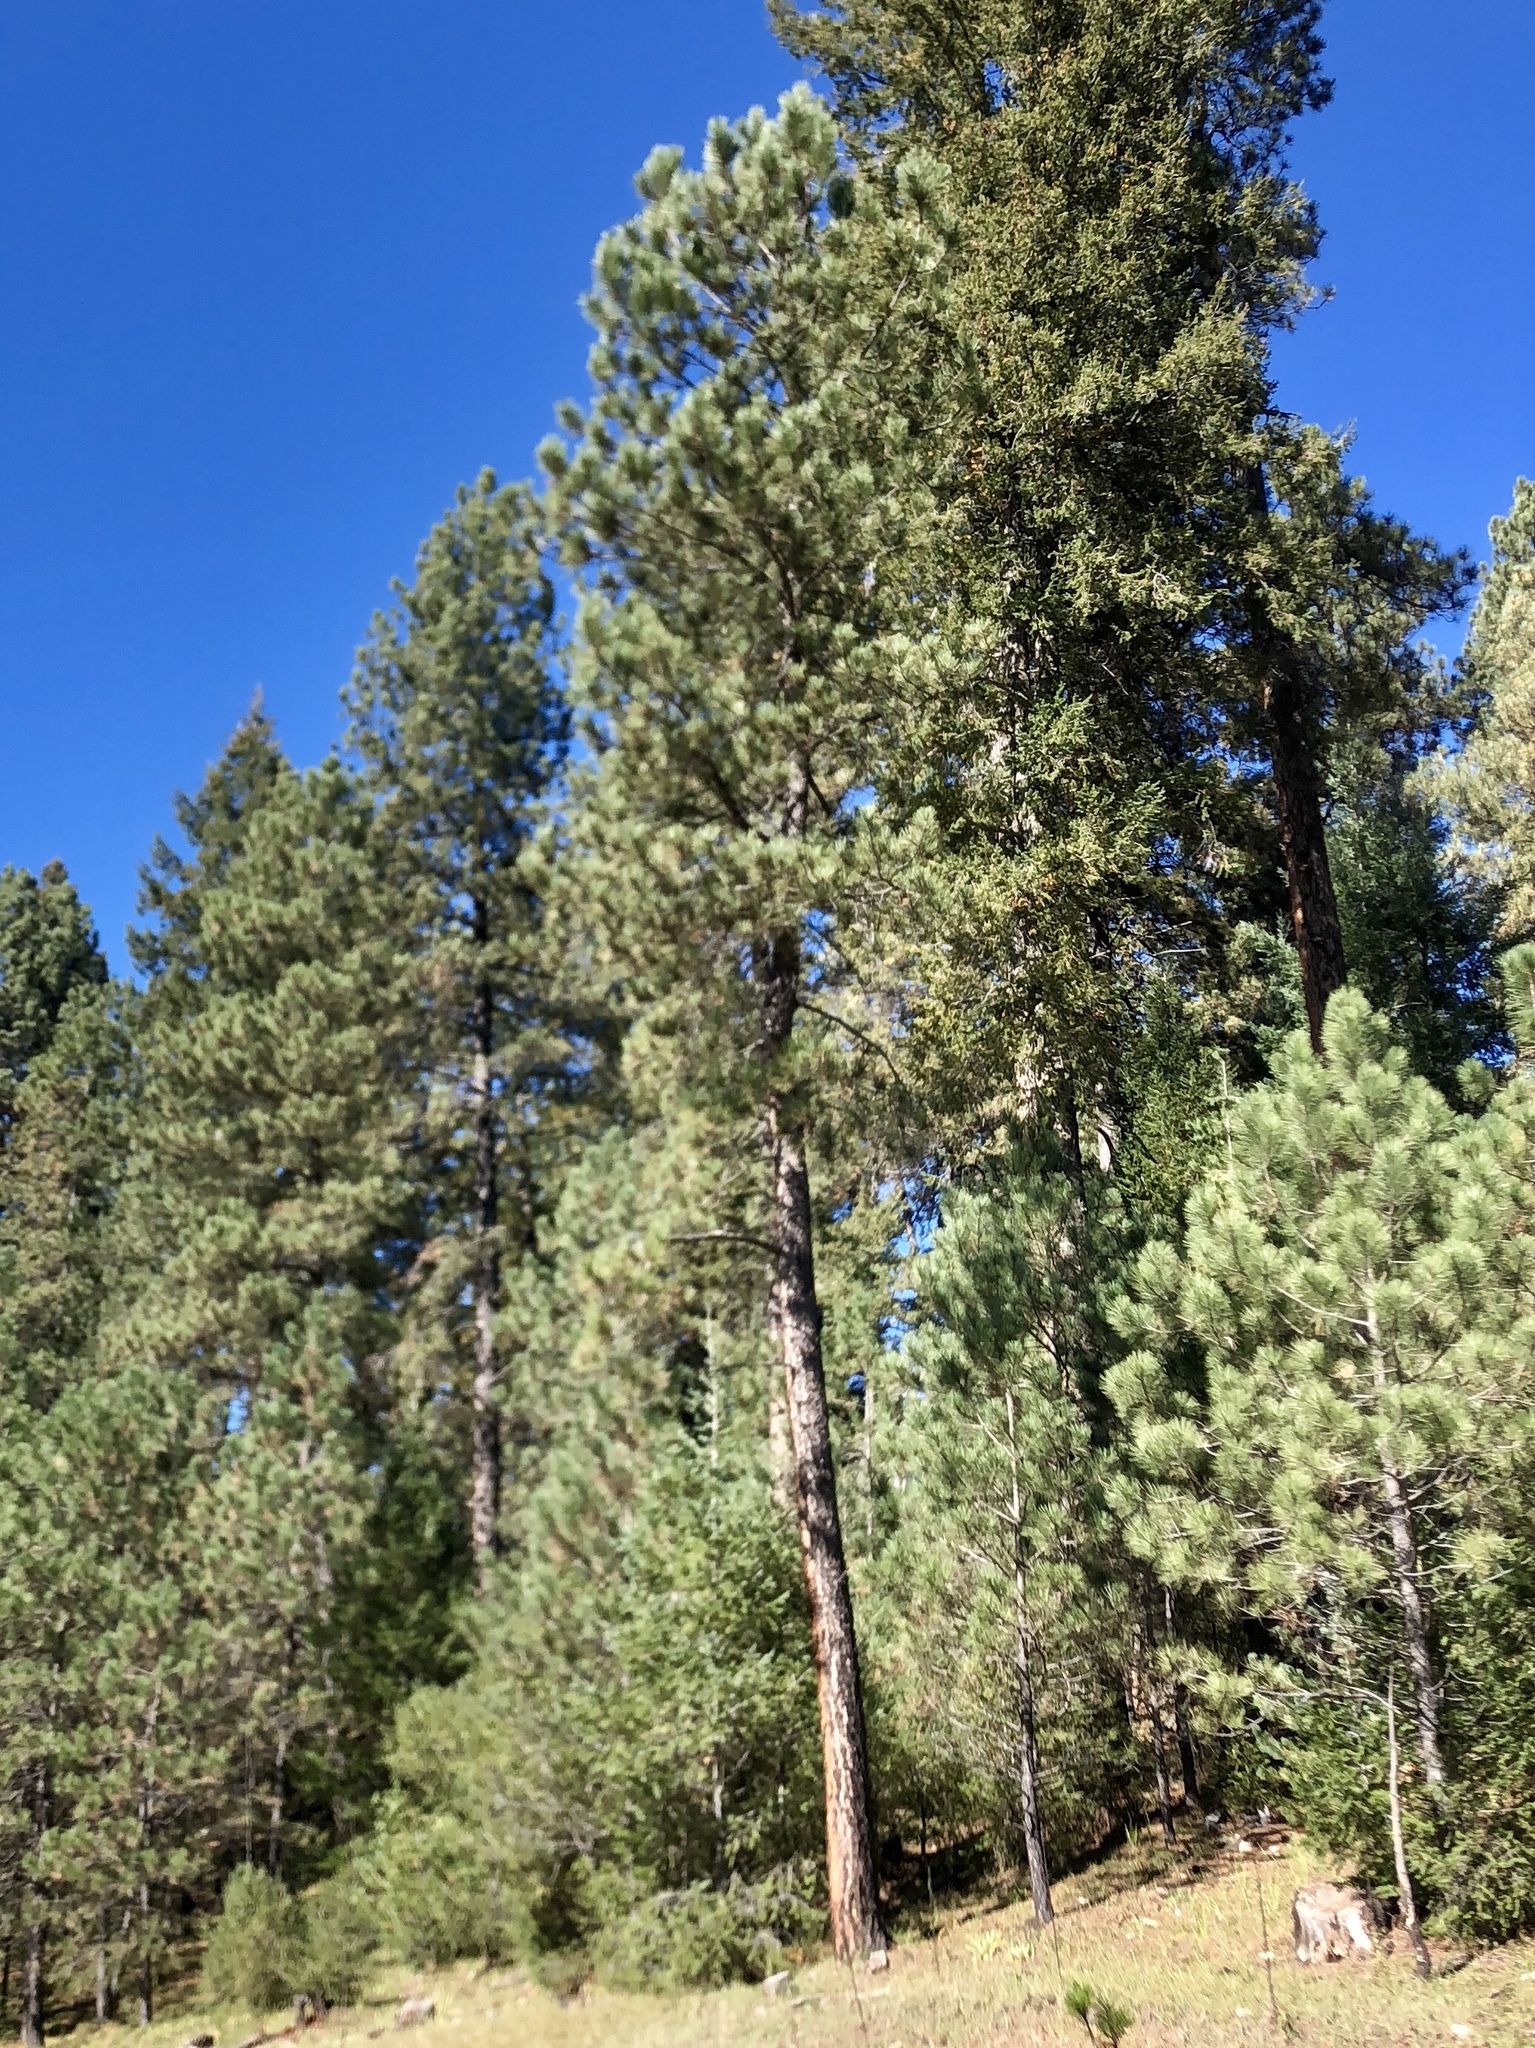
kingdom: Plantae
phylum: Tracheophyta
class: Pinopsida
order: Pinales
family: Pinaceae
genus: Pinus
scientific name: Pinus ponderosa
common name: Western yellow-pine
